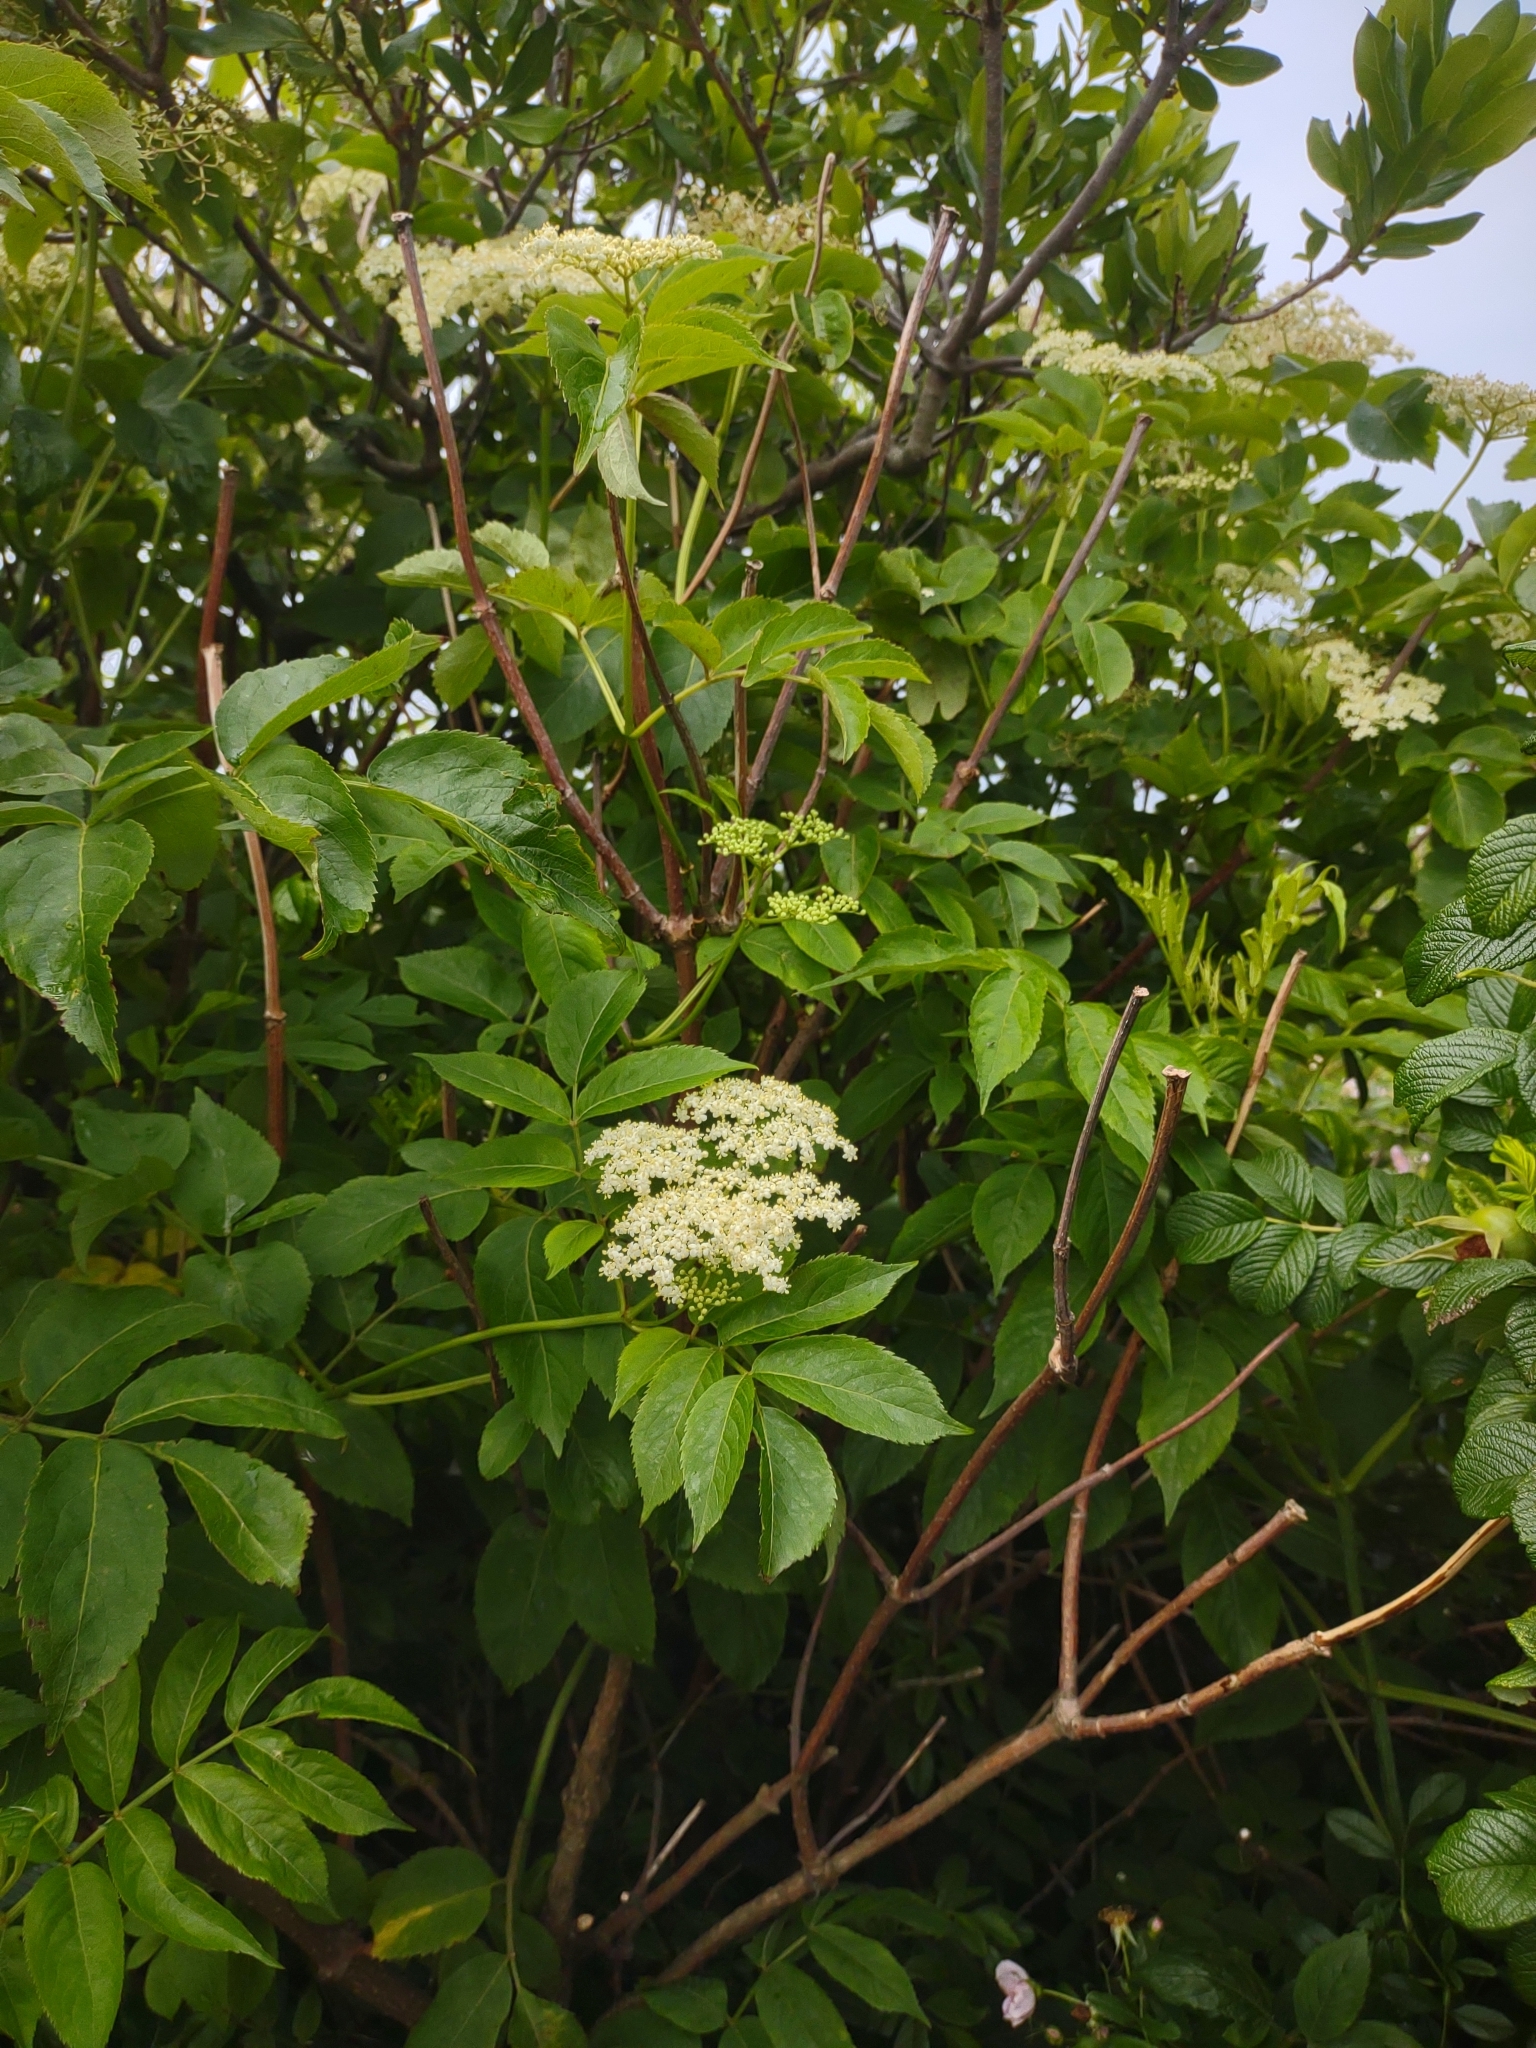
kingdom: Plantae
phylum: Tracheophyta
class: Magnoliopsida
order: Dipsacales
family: Viburnaceae
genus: Sambucus
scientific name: Sambucus canadensis
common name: American elder
